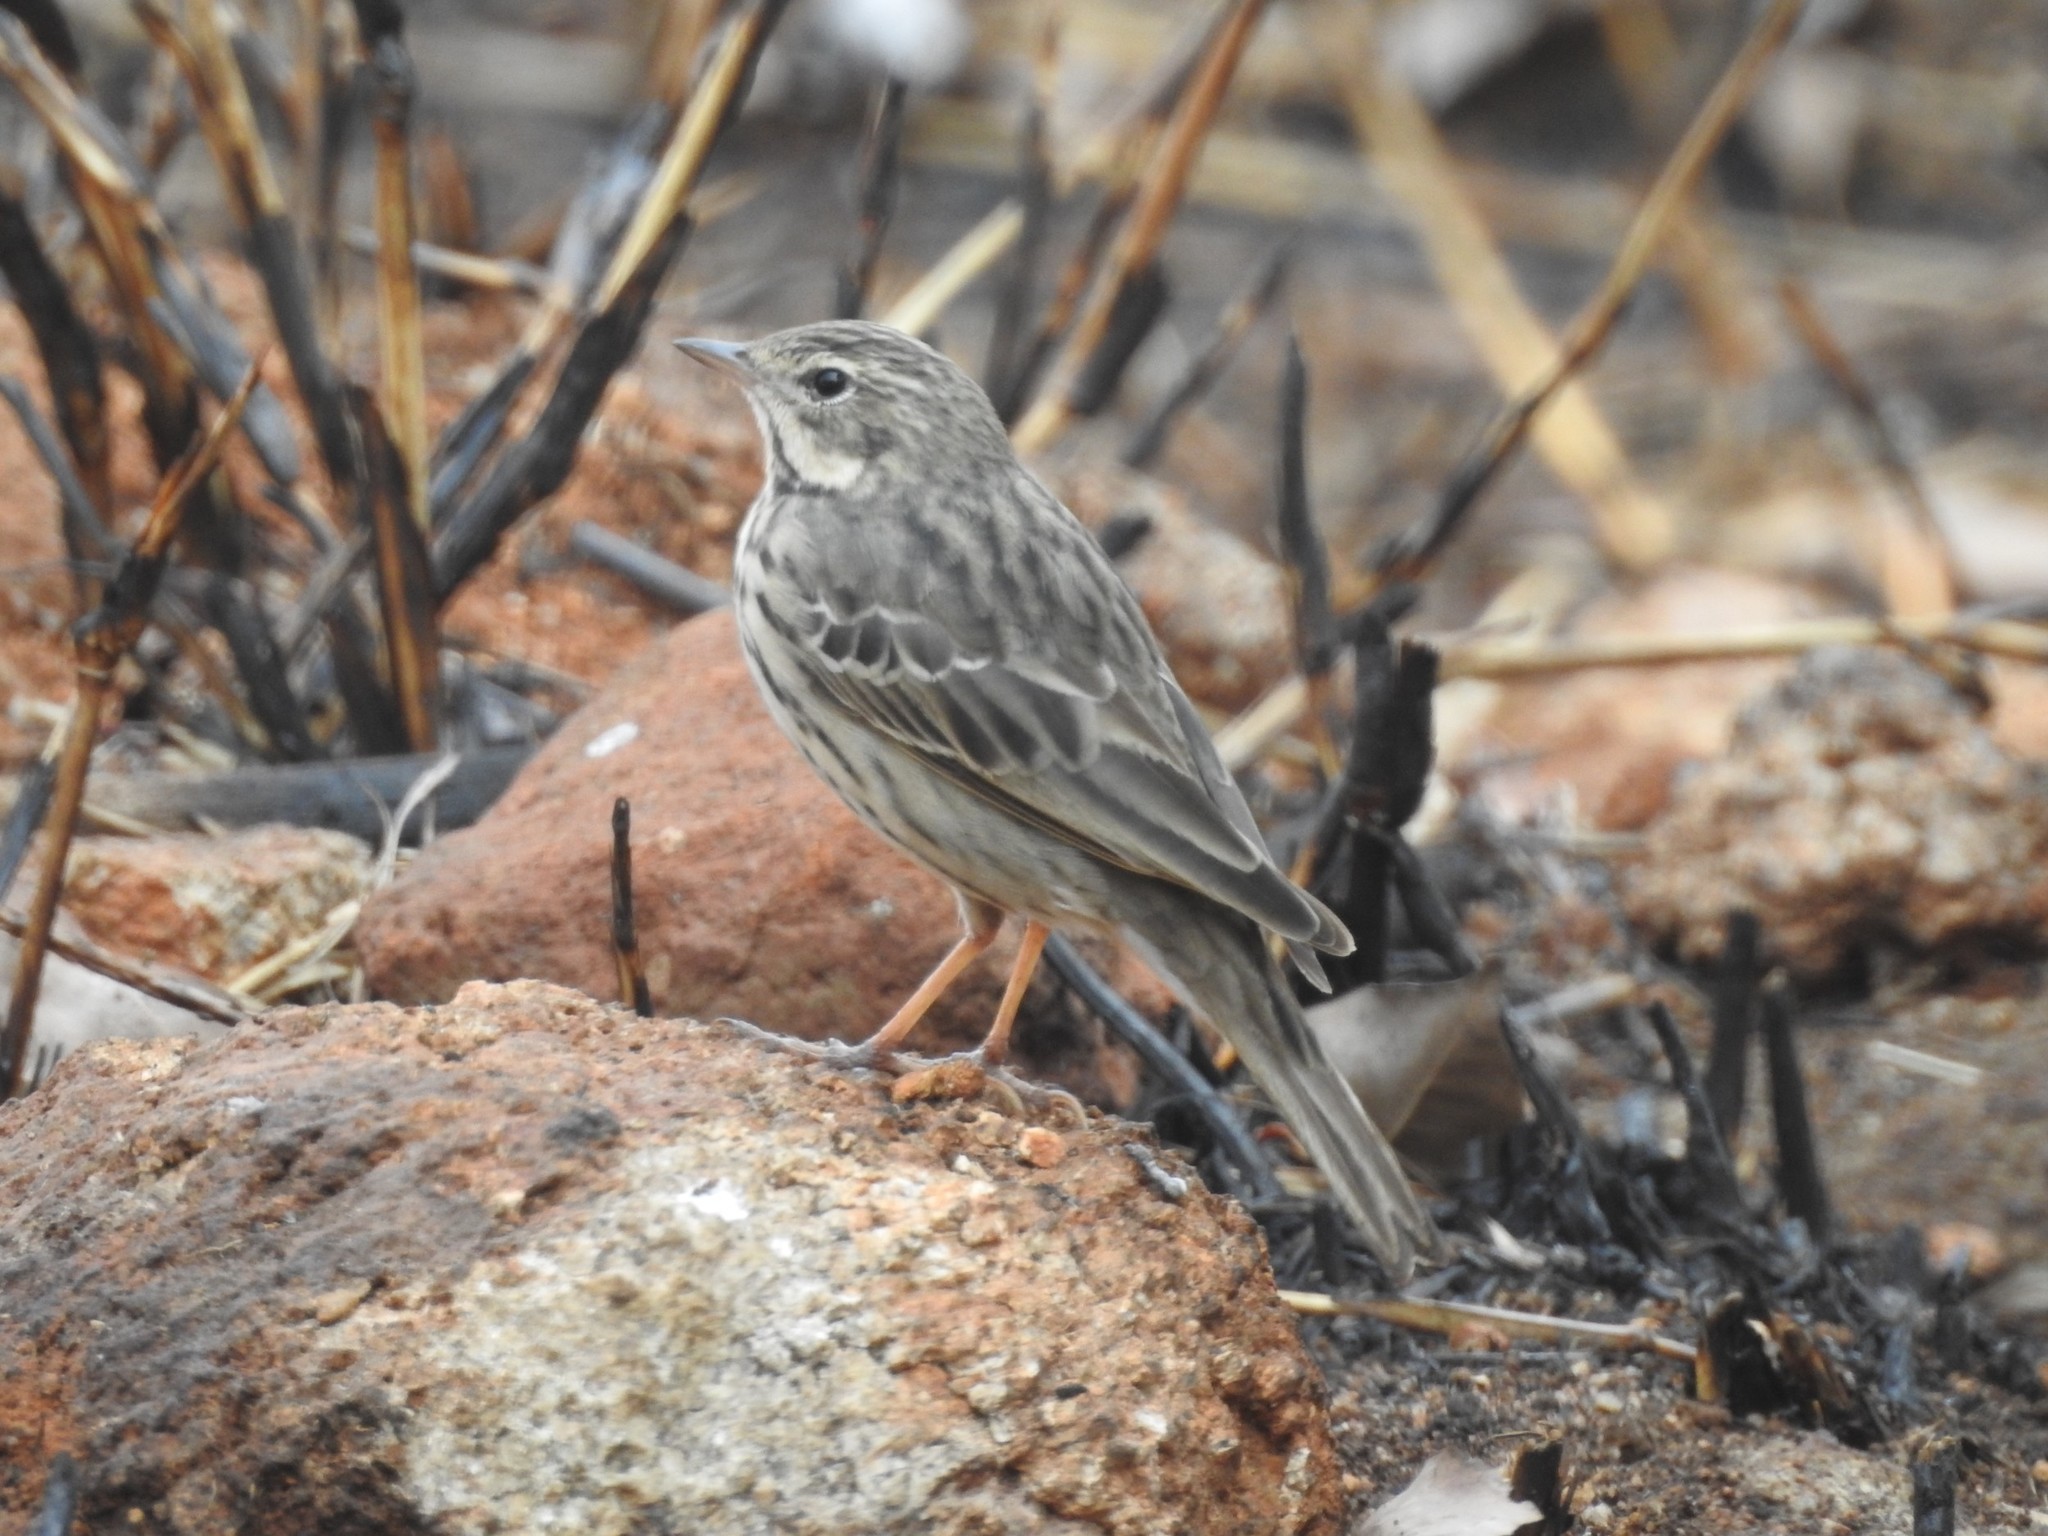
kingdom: Animalia
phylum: Chordata
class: Aves
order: Passeriformes
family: Motacillidae
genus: Anthus
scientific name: Anthus trivialis
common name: Tree pipit
